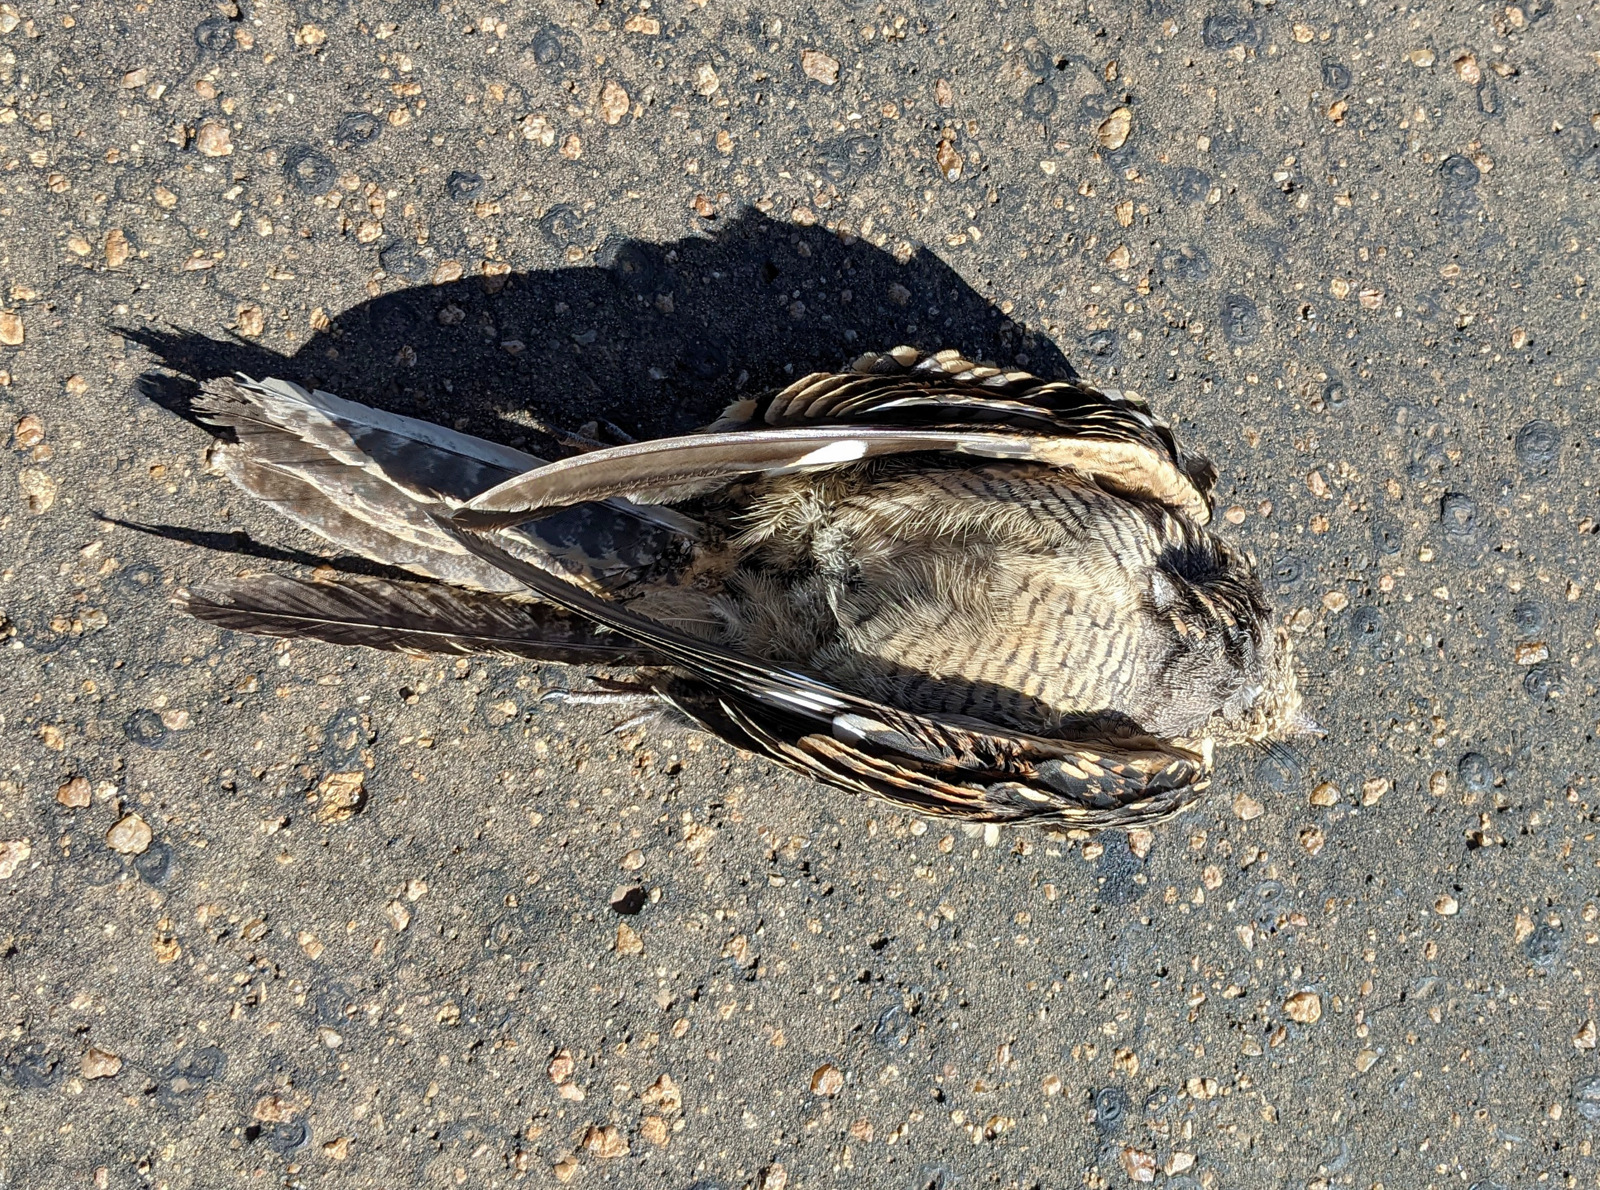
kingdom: Animalia
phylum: Chordata
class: Aves
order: Caprimulgiformes
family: Caprimulgidae
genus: Caprimulgus
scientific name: Caprimulgus fossii
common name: Square-tailed nightjar
